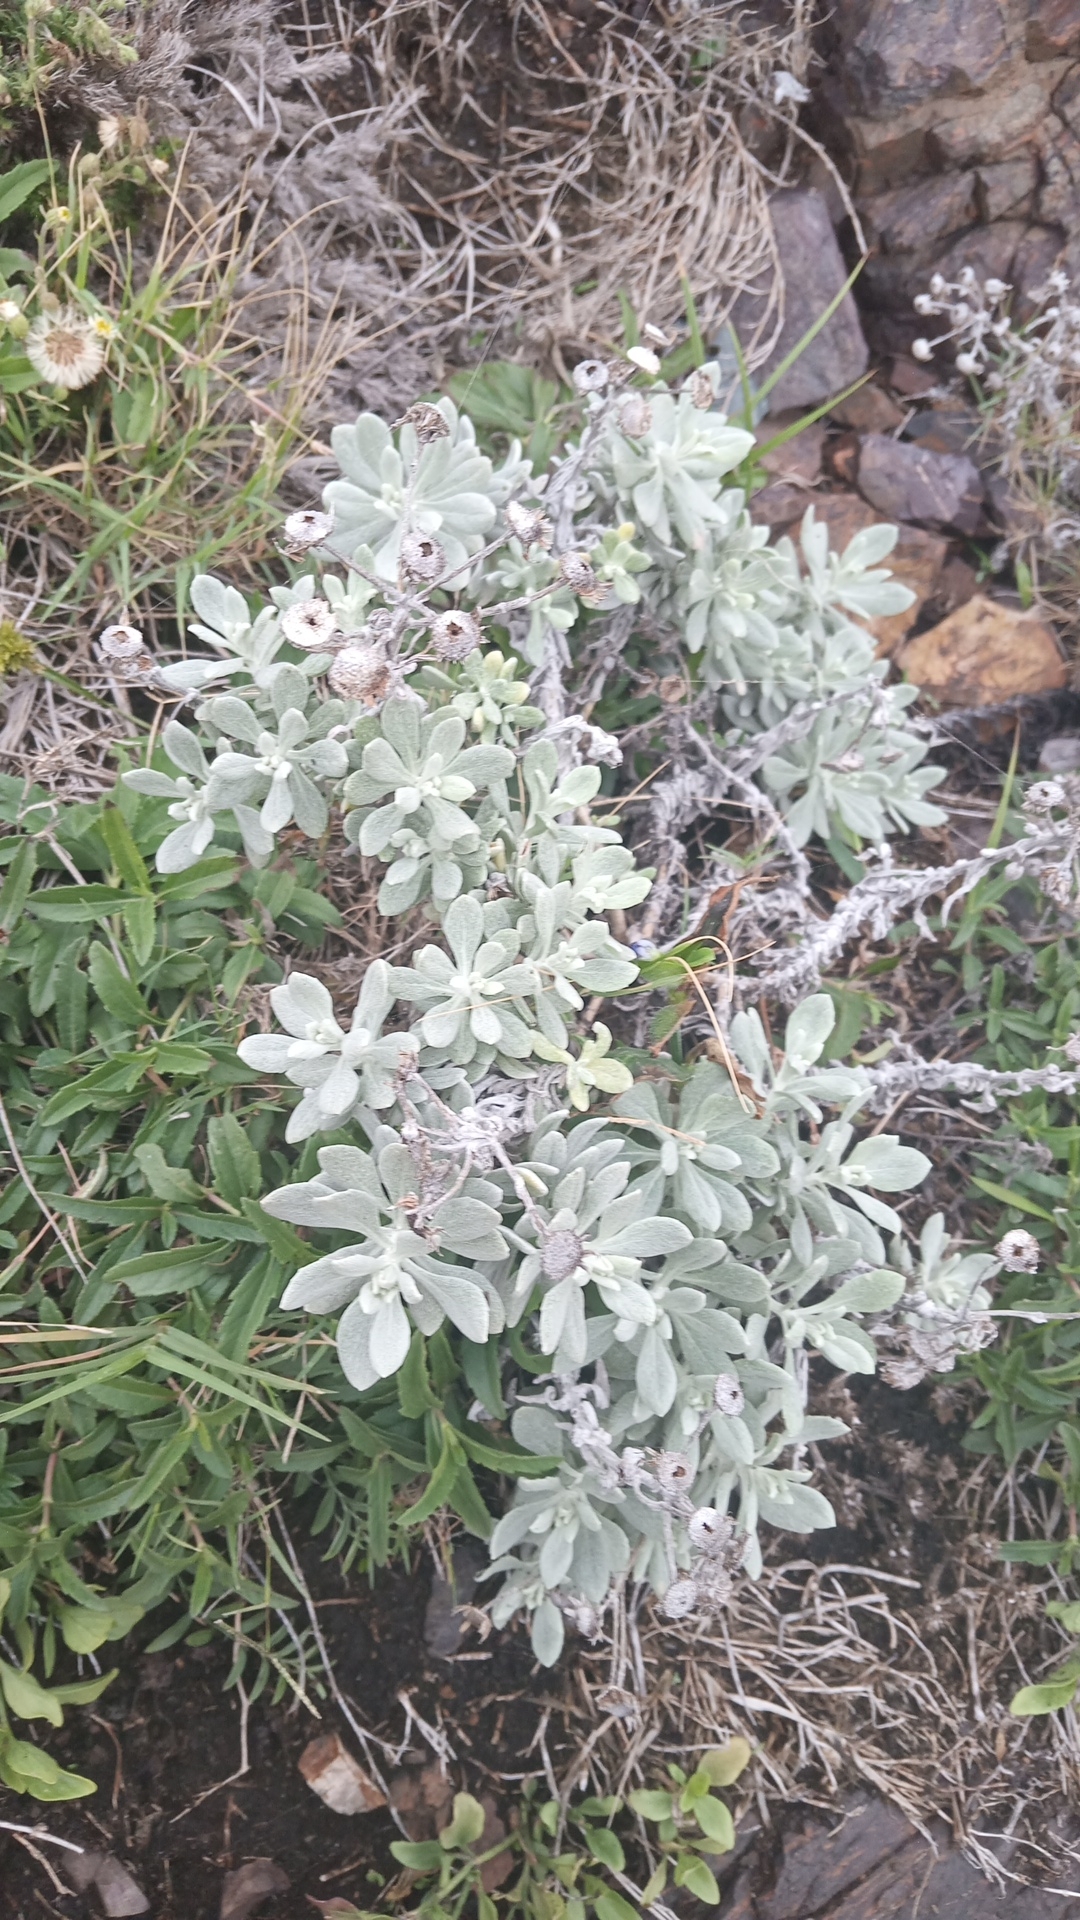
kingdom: Plantae
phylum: Tracheophyta
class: Magnoliopsida
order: Asterales
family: Asteraceae
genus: Senecio
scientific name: Senecio ostenii
